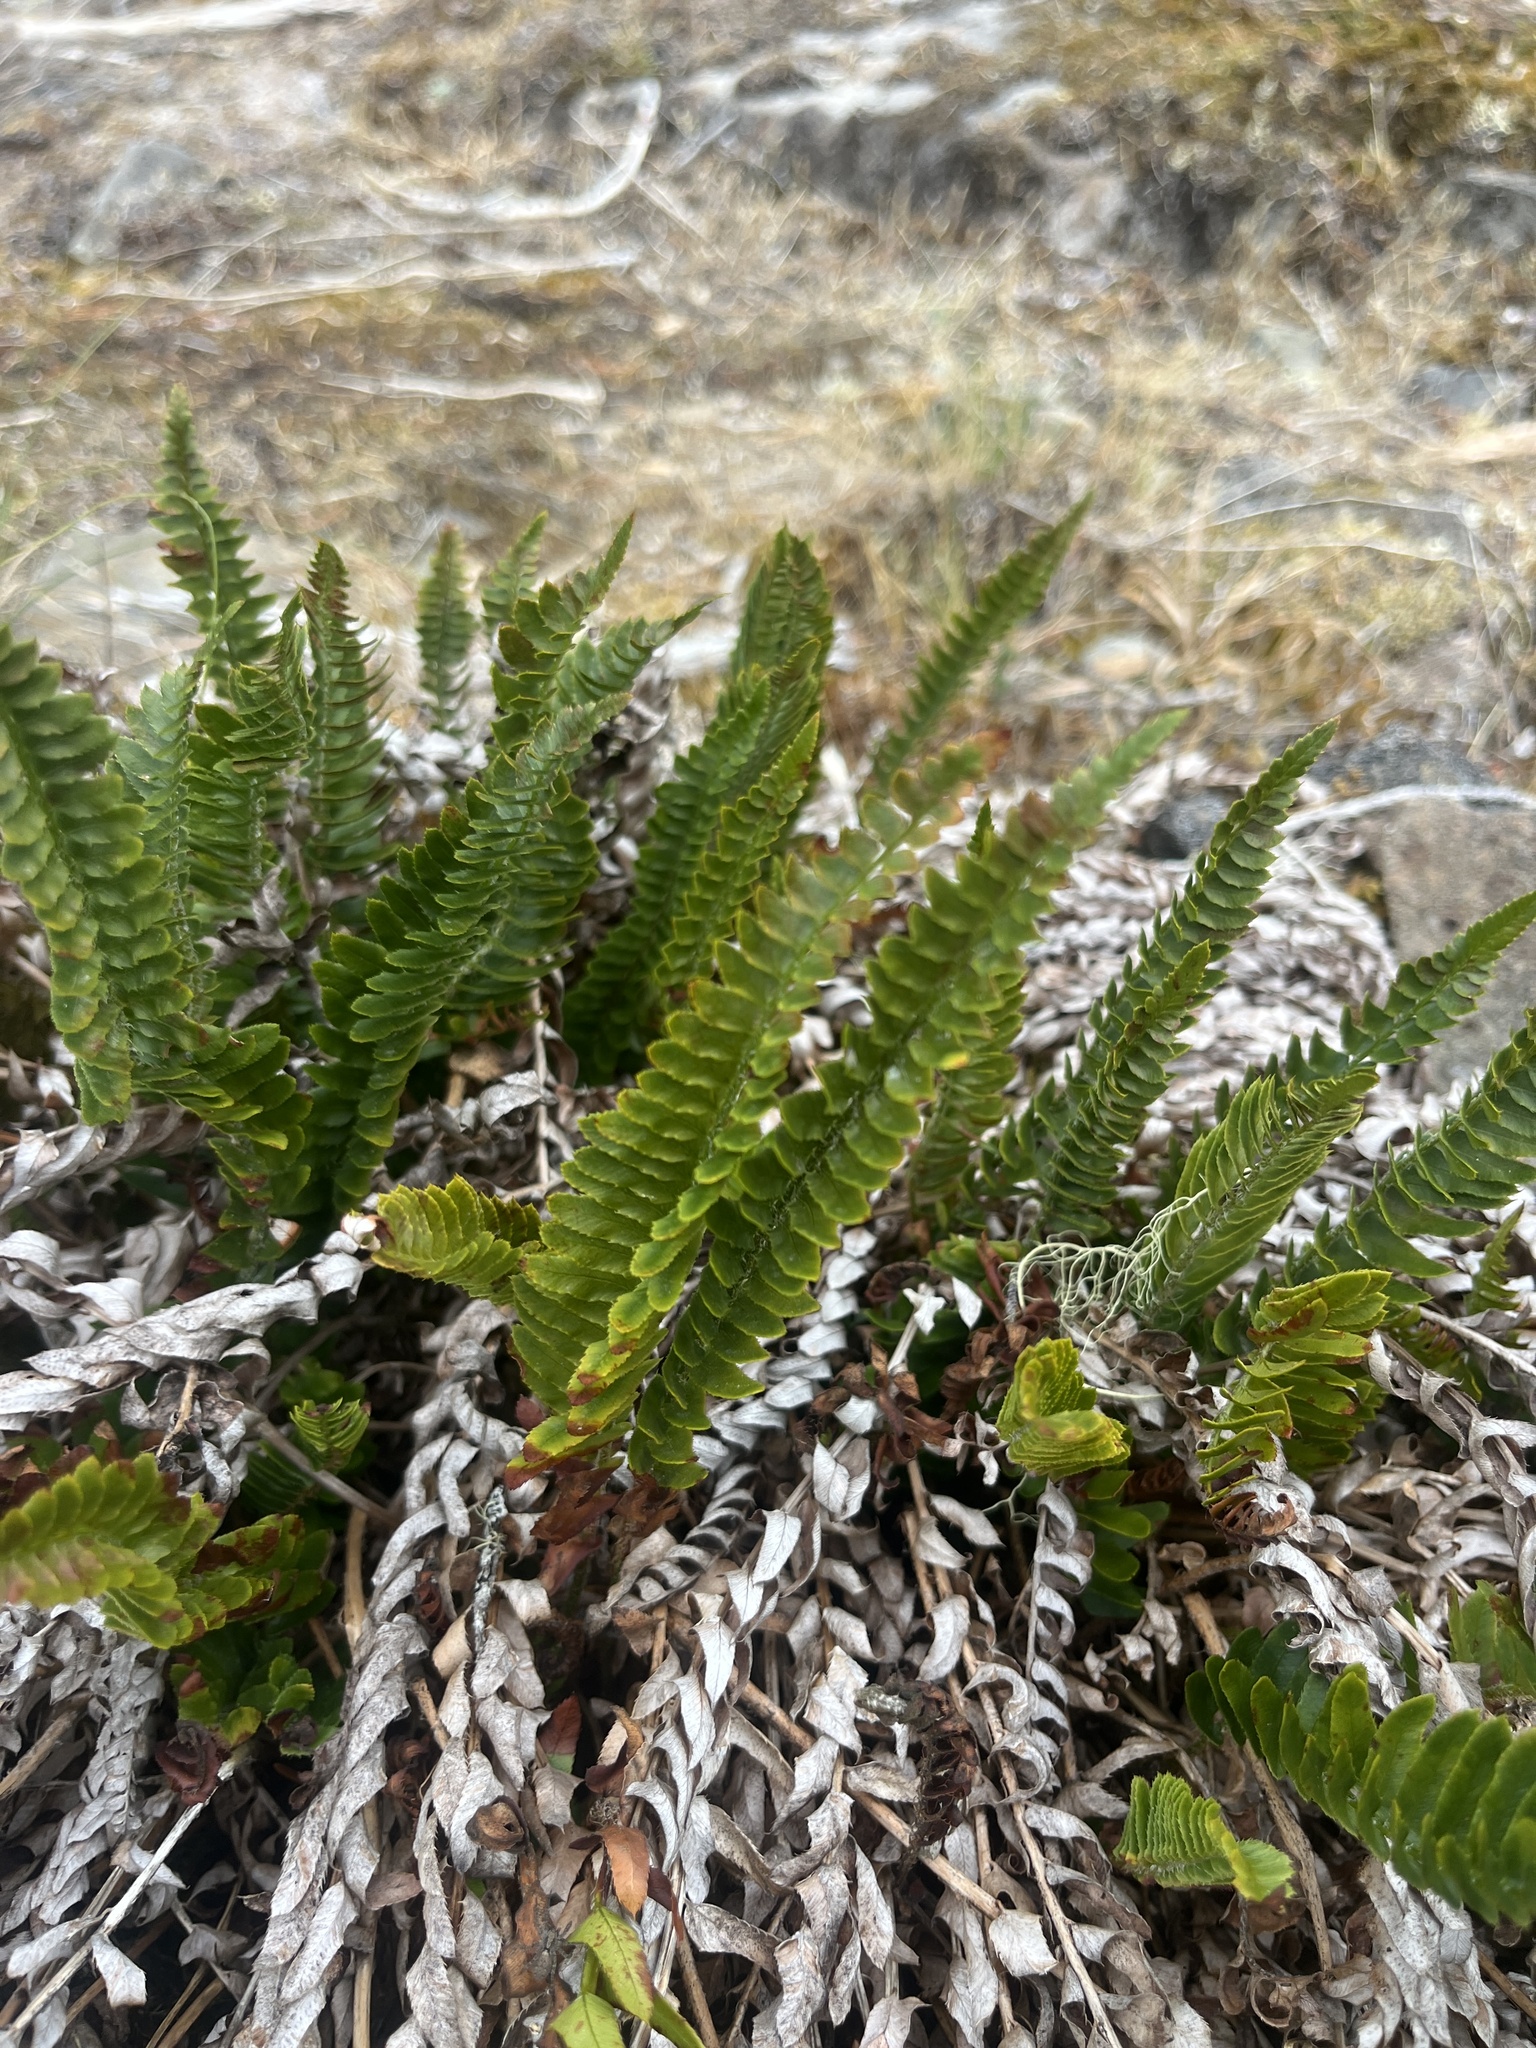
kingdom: Plantae
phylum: Tracheophyta
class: Polypodiopsida
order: Polypodiales
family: Dryopteridaceae
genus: Polystichum
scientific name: Polystichum imbricans
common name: Dwarf western sword fern
